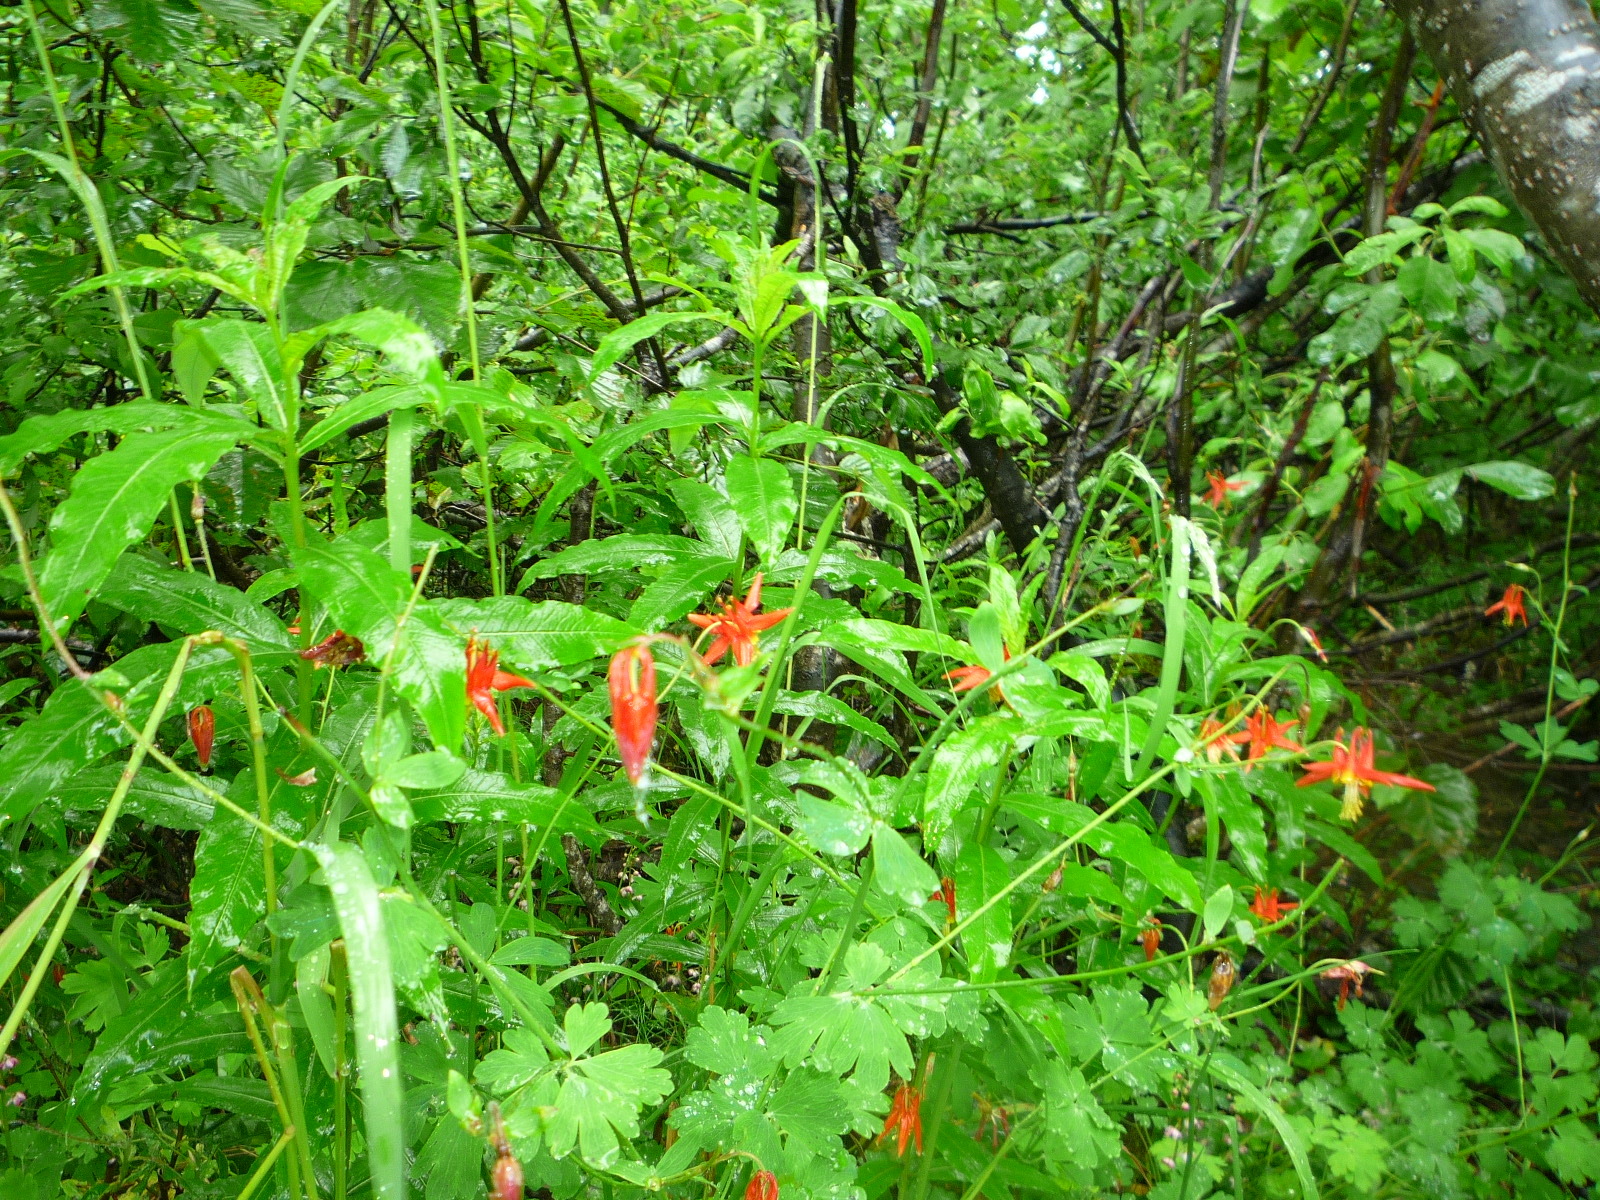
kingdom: Plantae
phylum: Tracheophyta
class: Magnoliopsida
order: Ranunculales
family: Ranunculaceae
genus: Aquilegia
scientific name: Aquilegia formosa
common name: Sitka columbine
